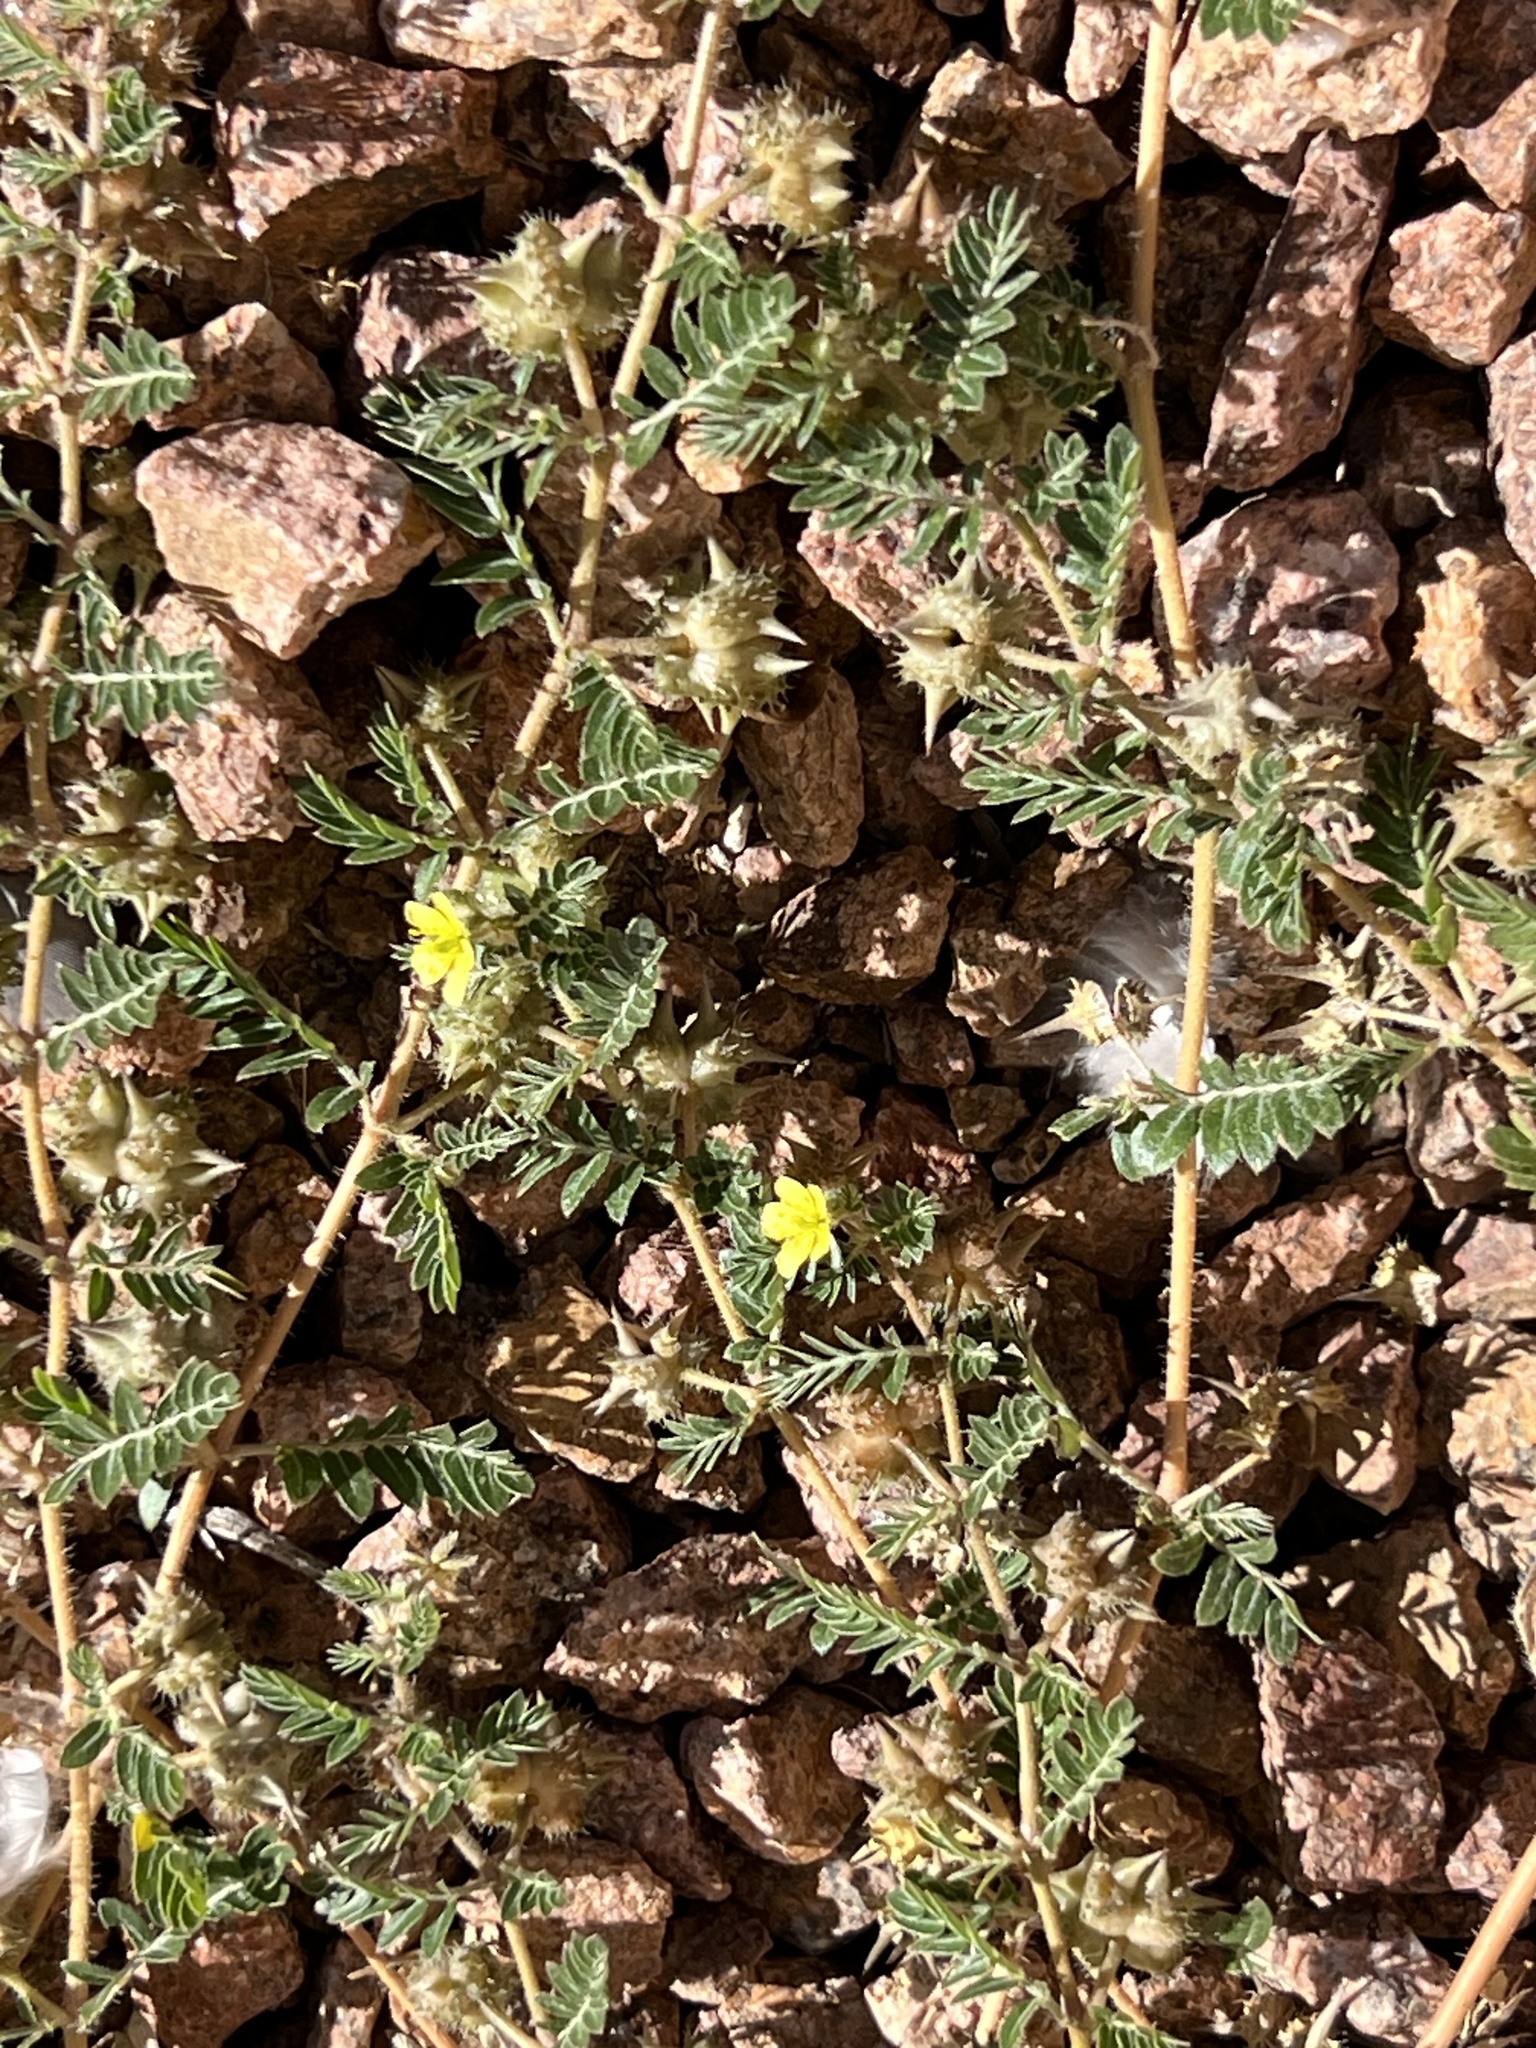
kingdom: Plantae
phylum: Tracheophyta
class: Magnoliopsida
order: Zygophyllales
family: Zygophyllaceae
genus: Tribulus
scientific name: Tribulus terrestris
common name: Puncturevine
